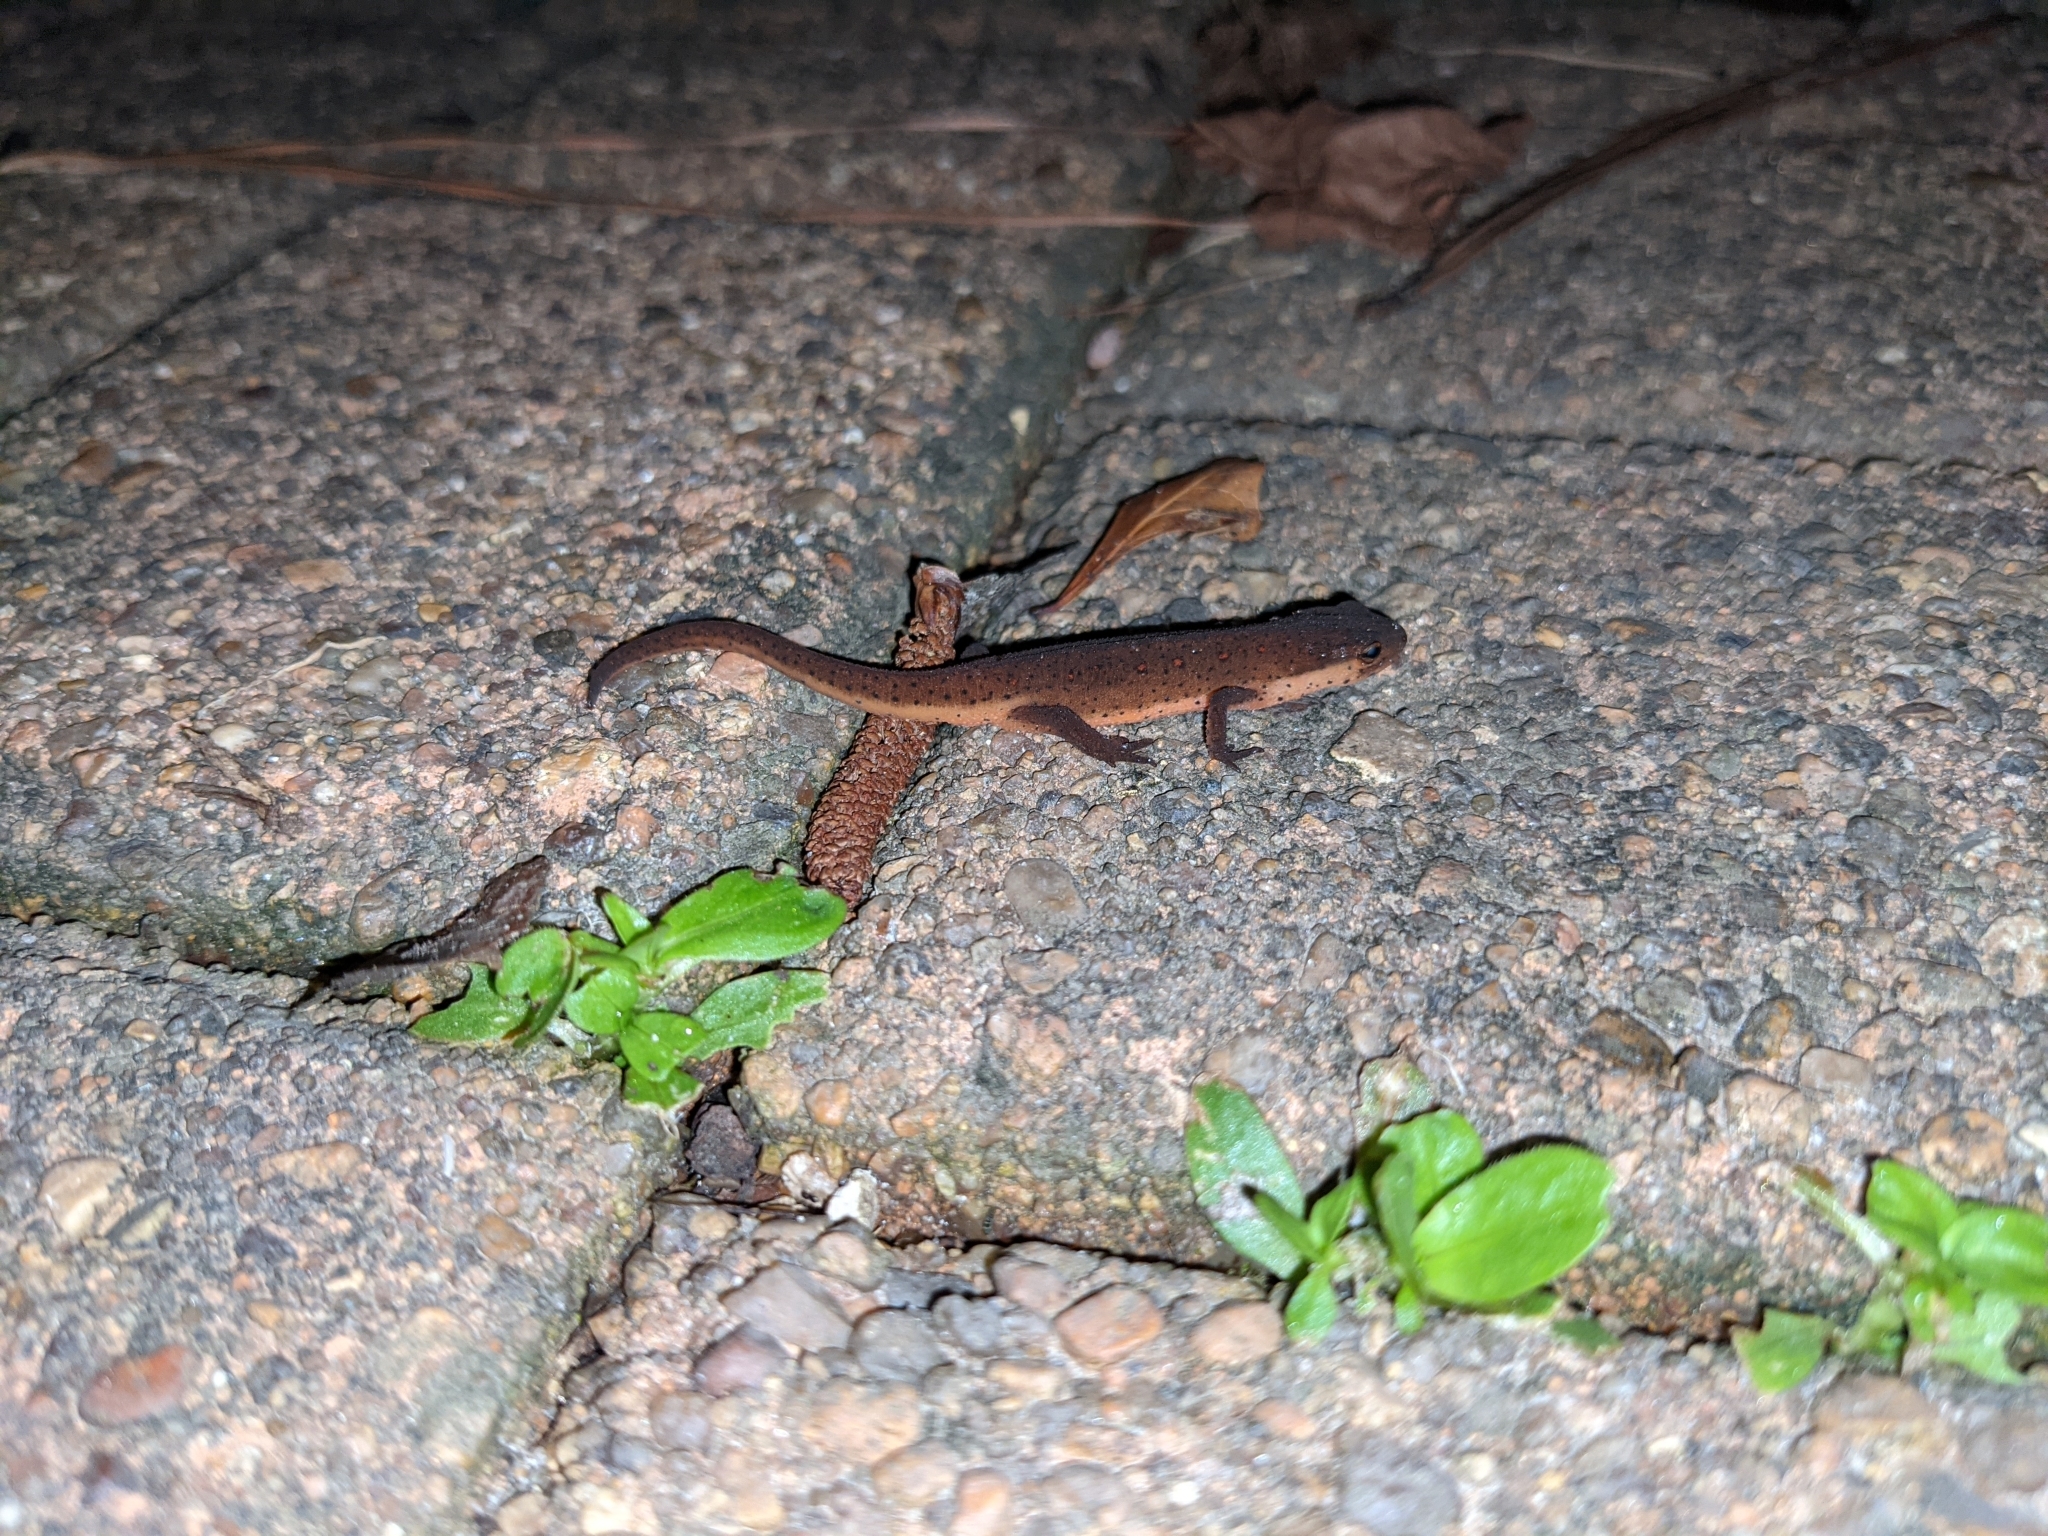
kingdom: Animalia
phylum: Chordata
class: Amphibia
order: Caudata
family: Salamandridae
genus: Notophthalmus
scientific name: Notophthalmus viridescens
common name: Eastern newt
